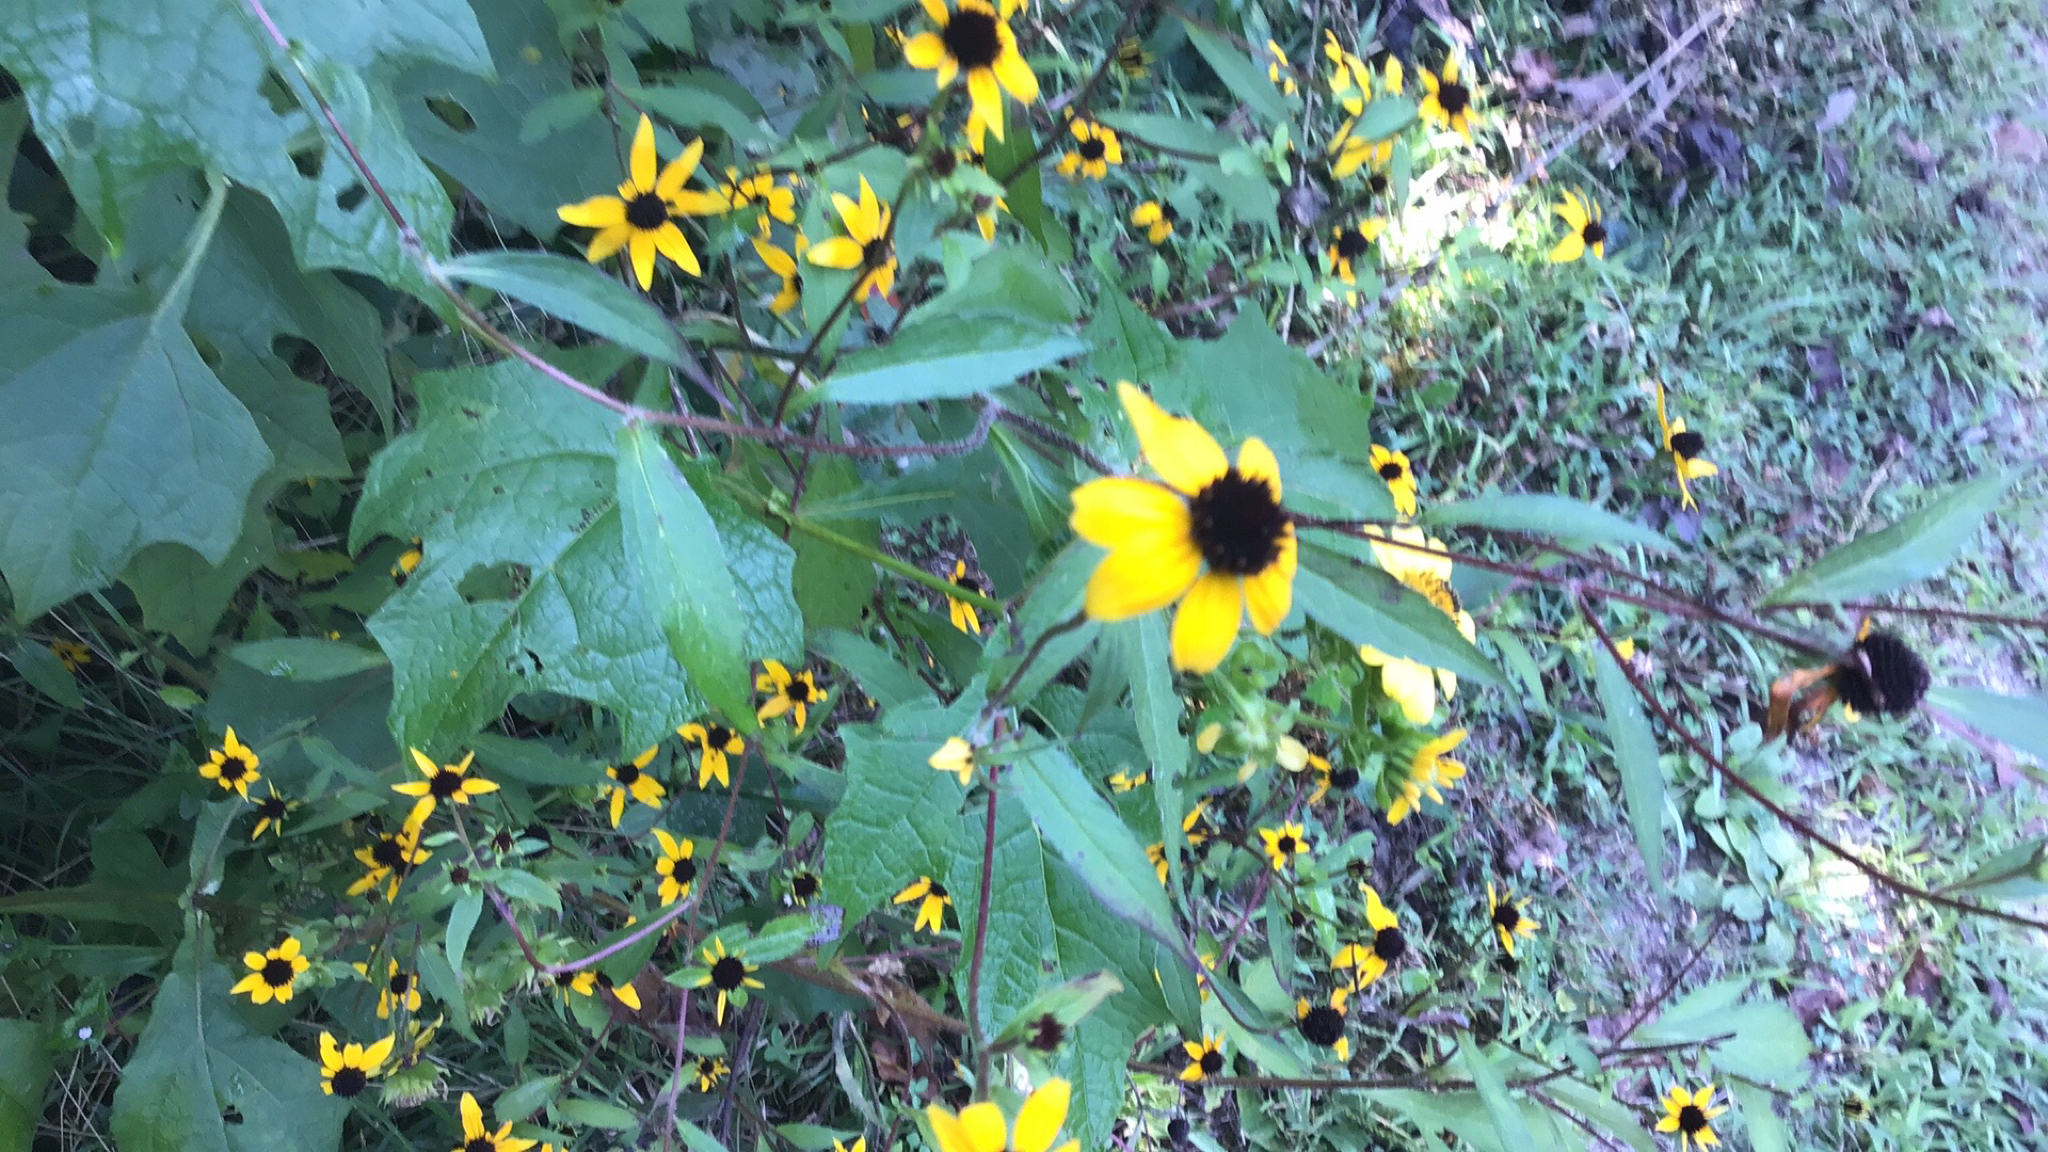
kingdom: Plantae
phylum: Tracheophyta
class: Magnoliopsida
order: Asterales
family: Asteraceae
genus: Rudbeckia
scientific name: Rudbeckia triloba
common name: Thin-leaved coneflower
